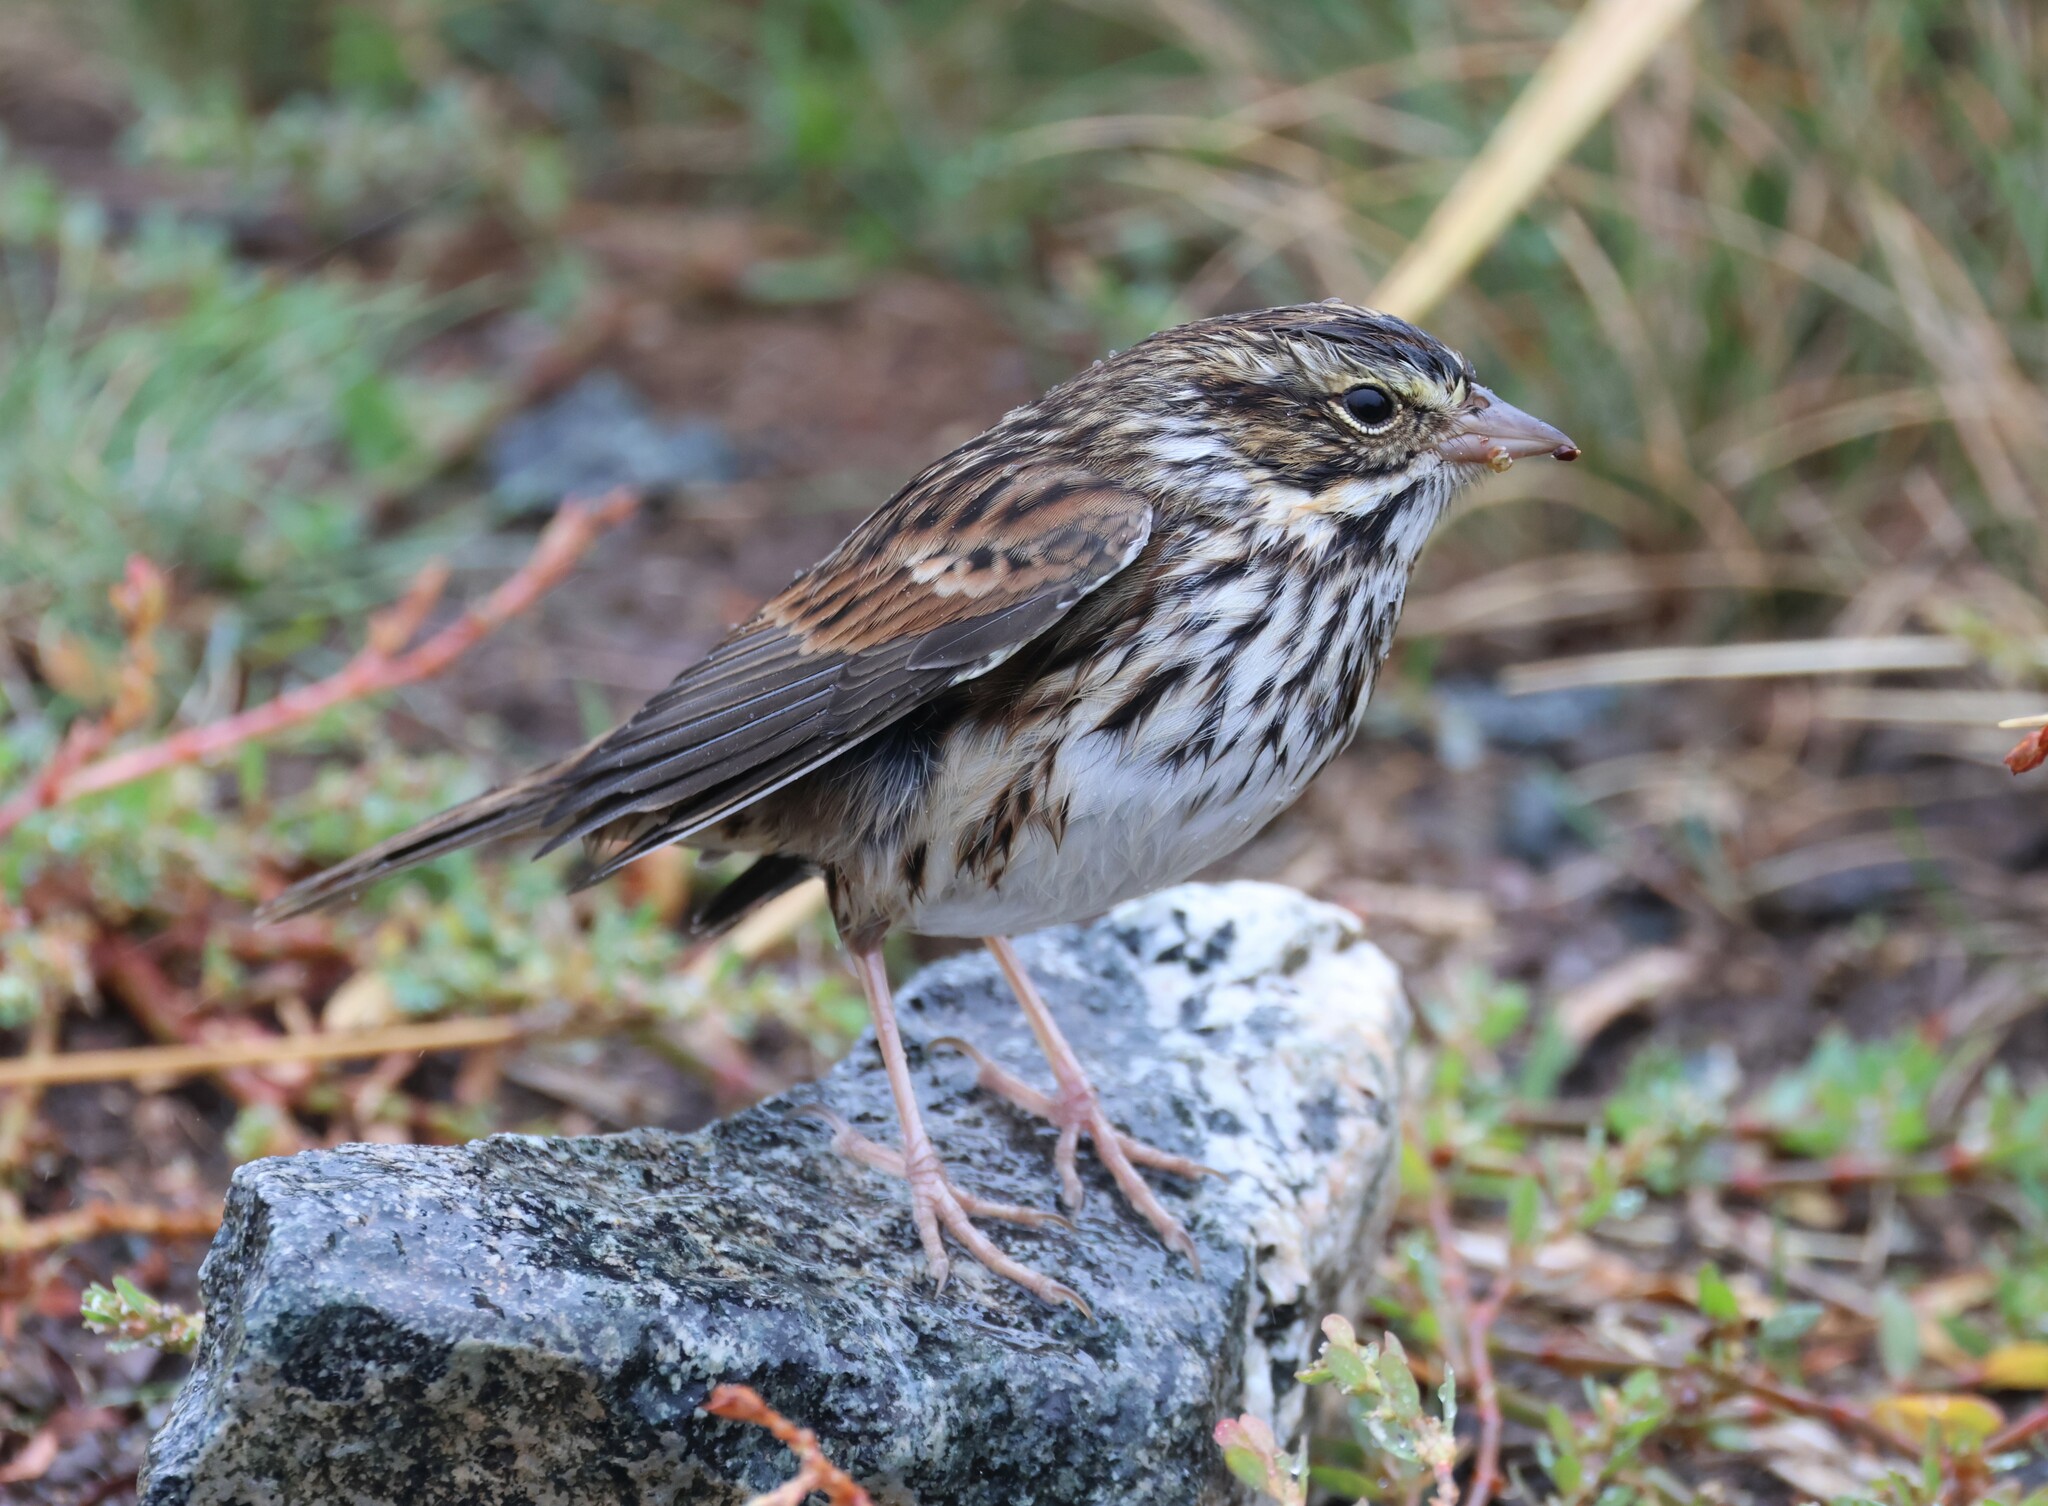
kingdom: Animalia
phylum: Chordata
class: Aves
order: Passeriformes
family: Passerellidae
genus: Passerculus
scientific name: Passerculus sandwichensis
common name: Savannah sparrow
